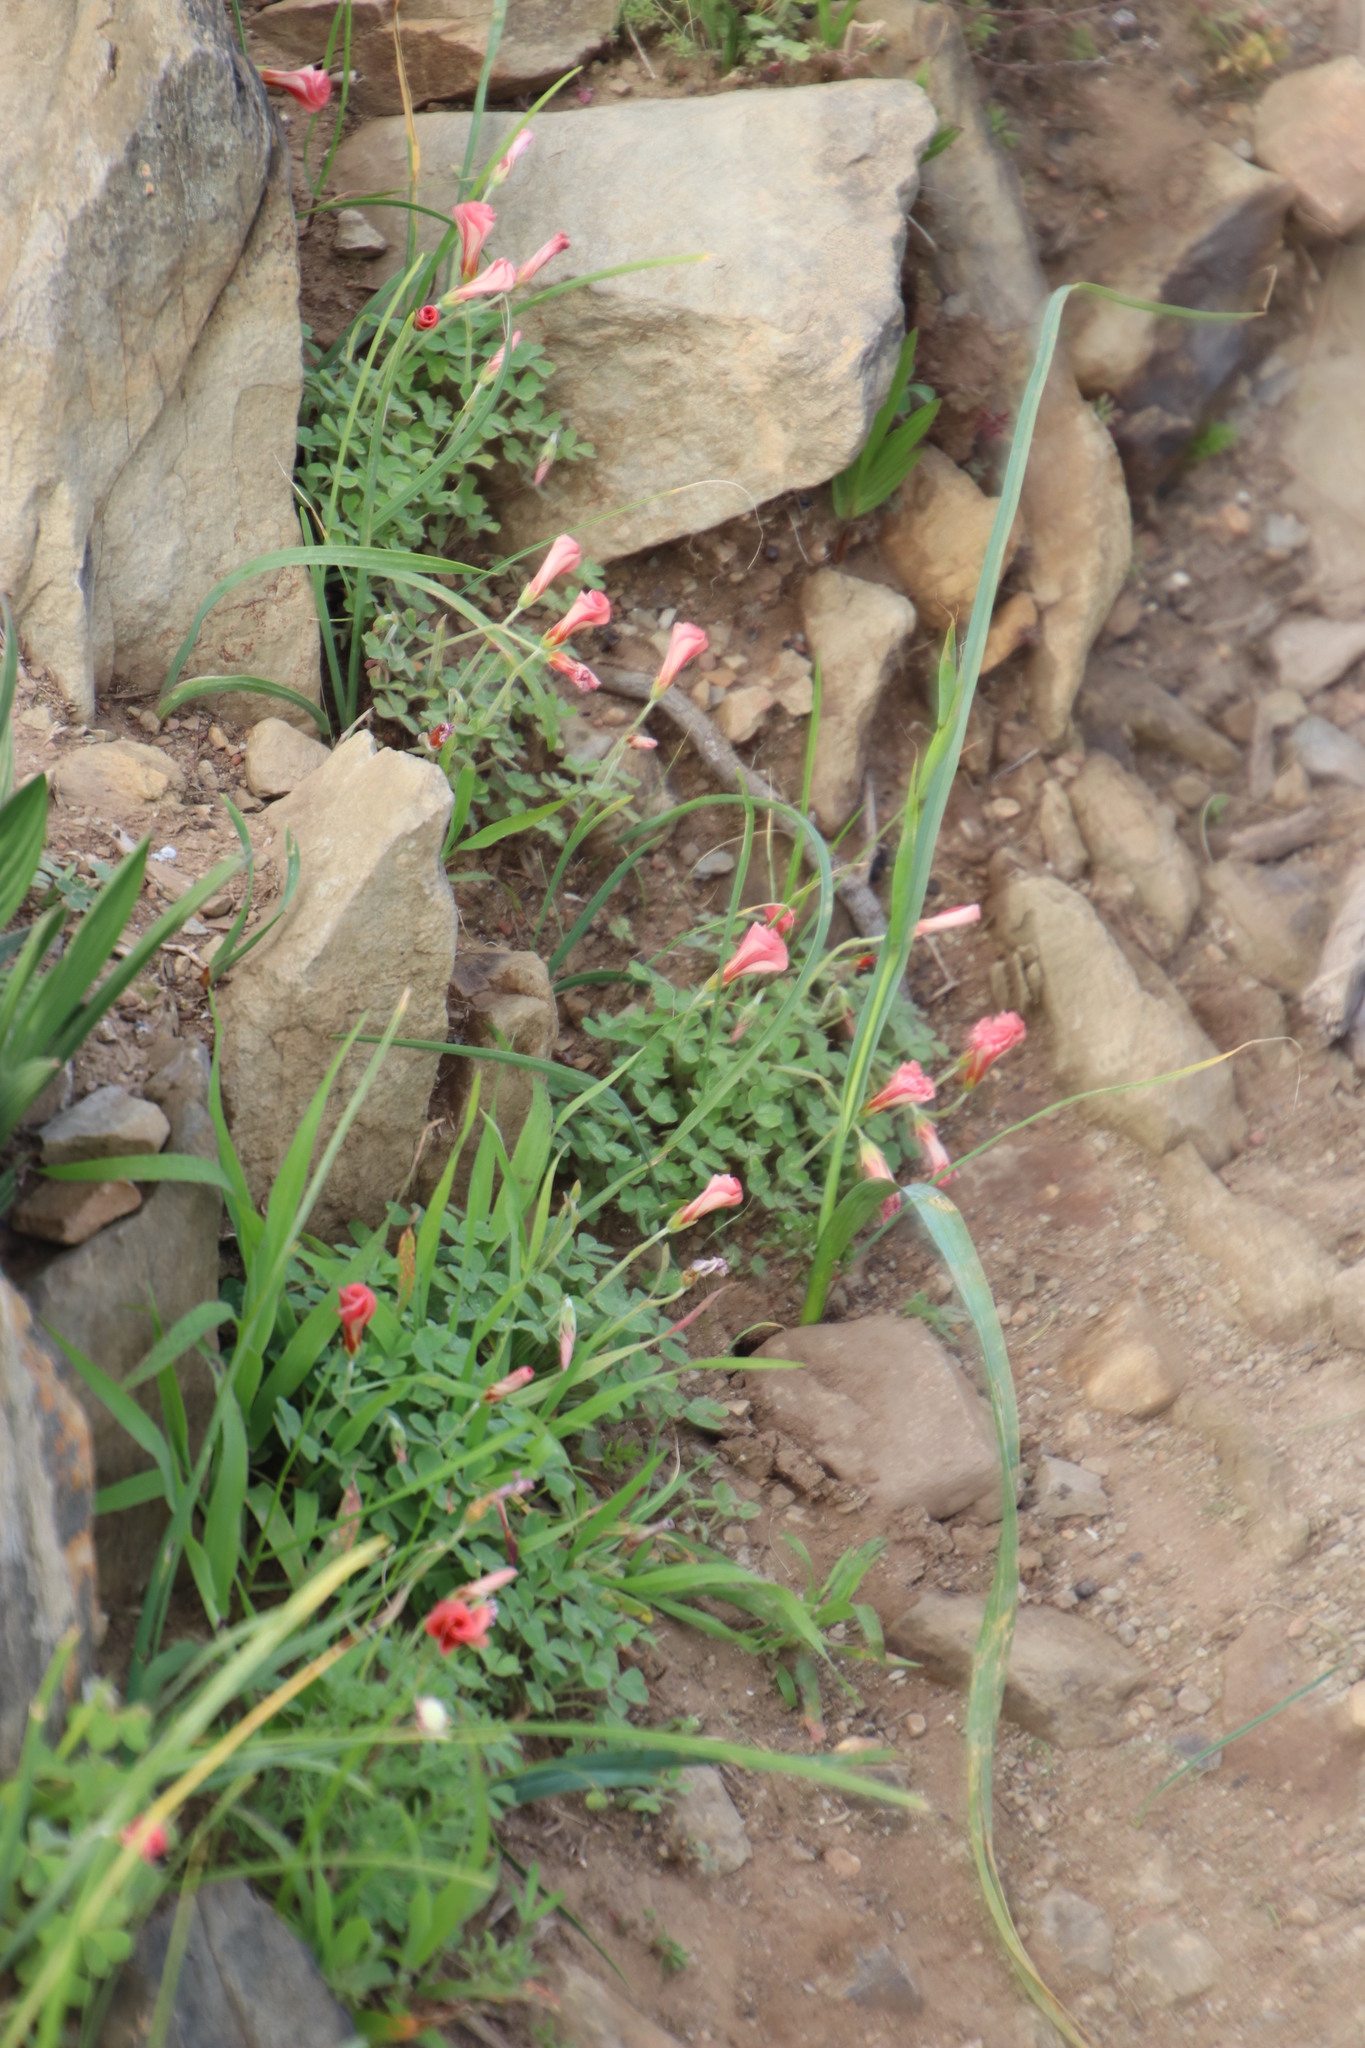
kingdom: Plantae
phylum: Tracheophyta
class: Magnoliopsida
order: Oxalidales
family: Oxalidaceae
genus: Oxalis
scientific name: Oxalis obtusa
